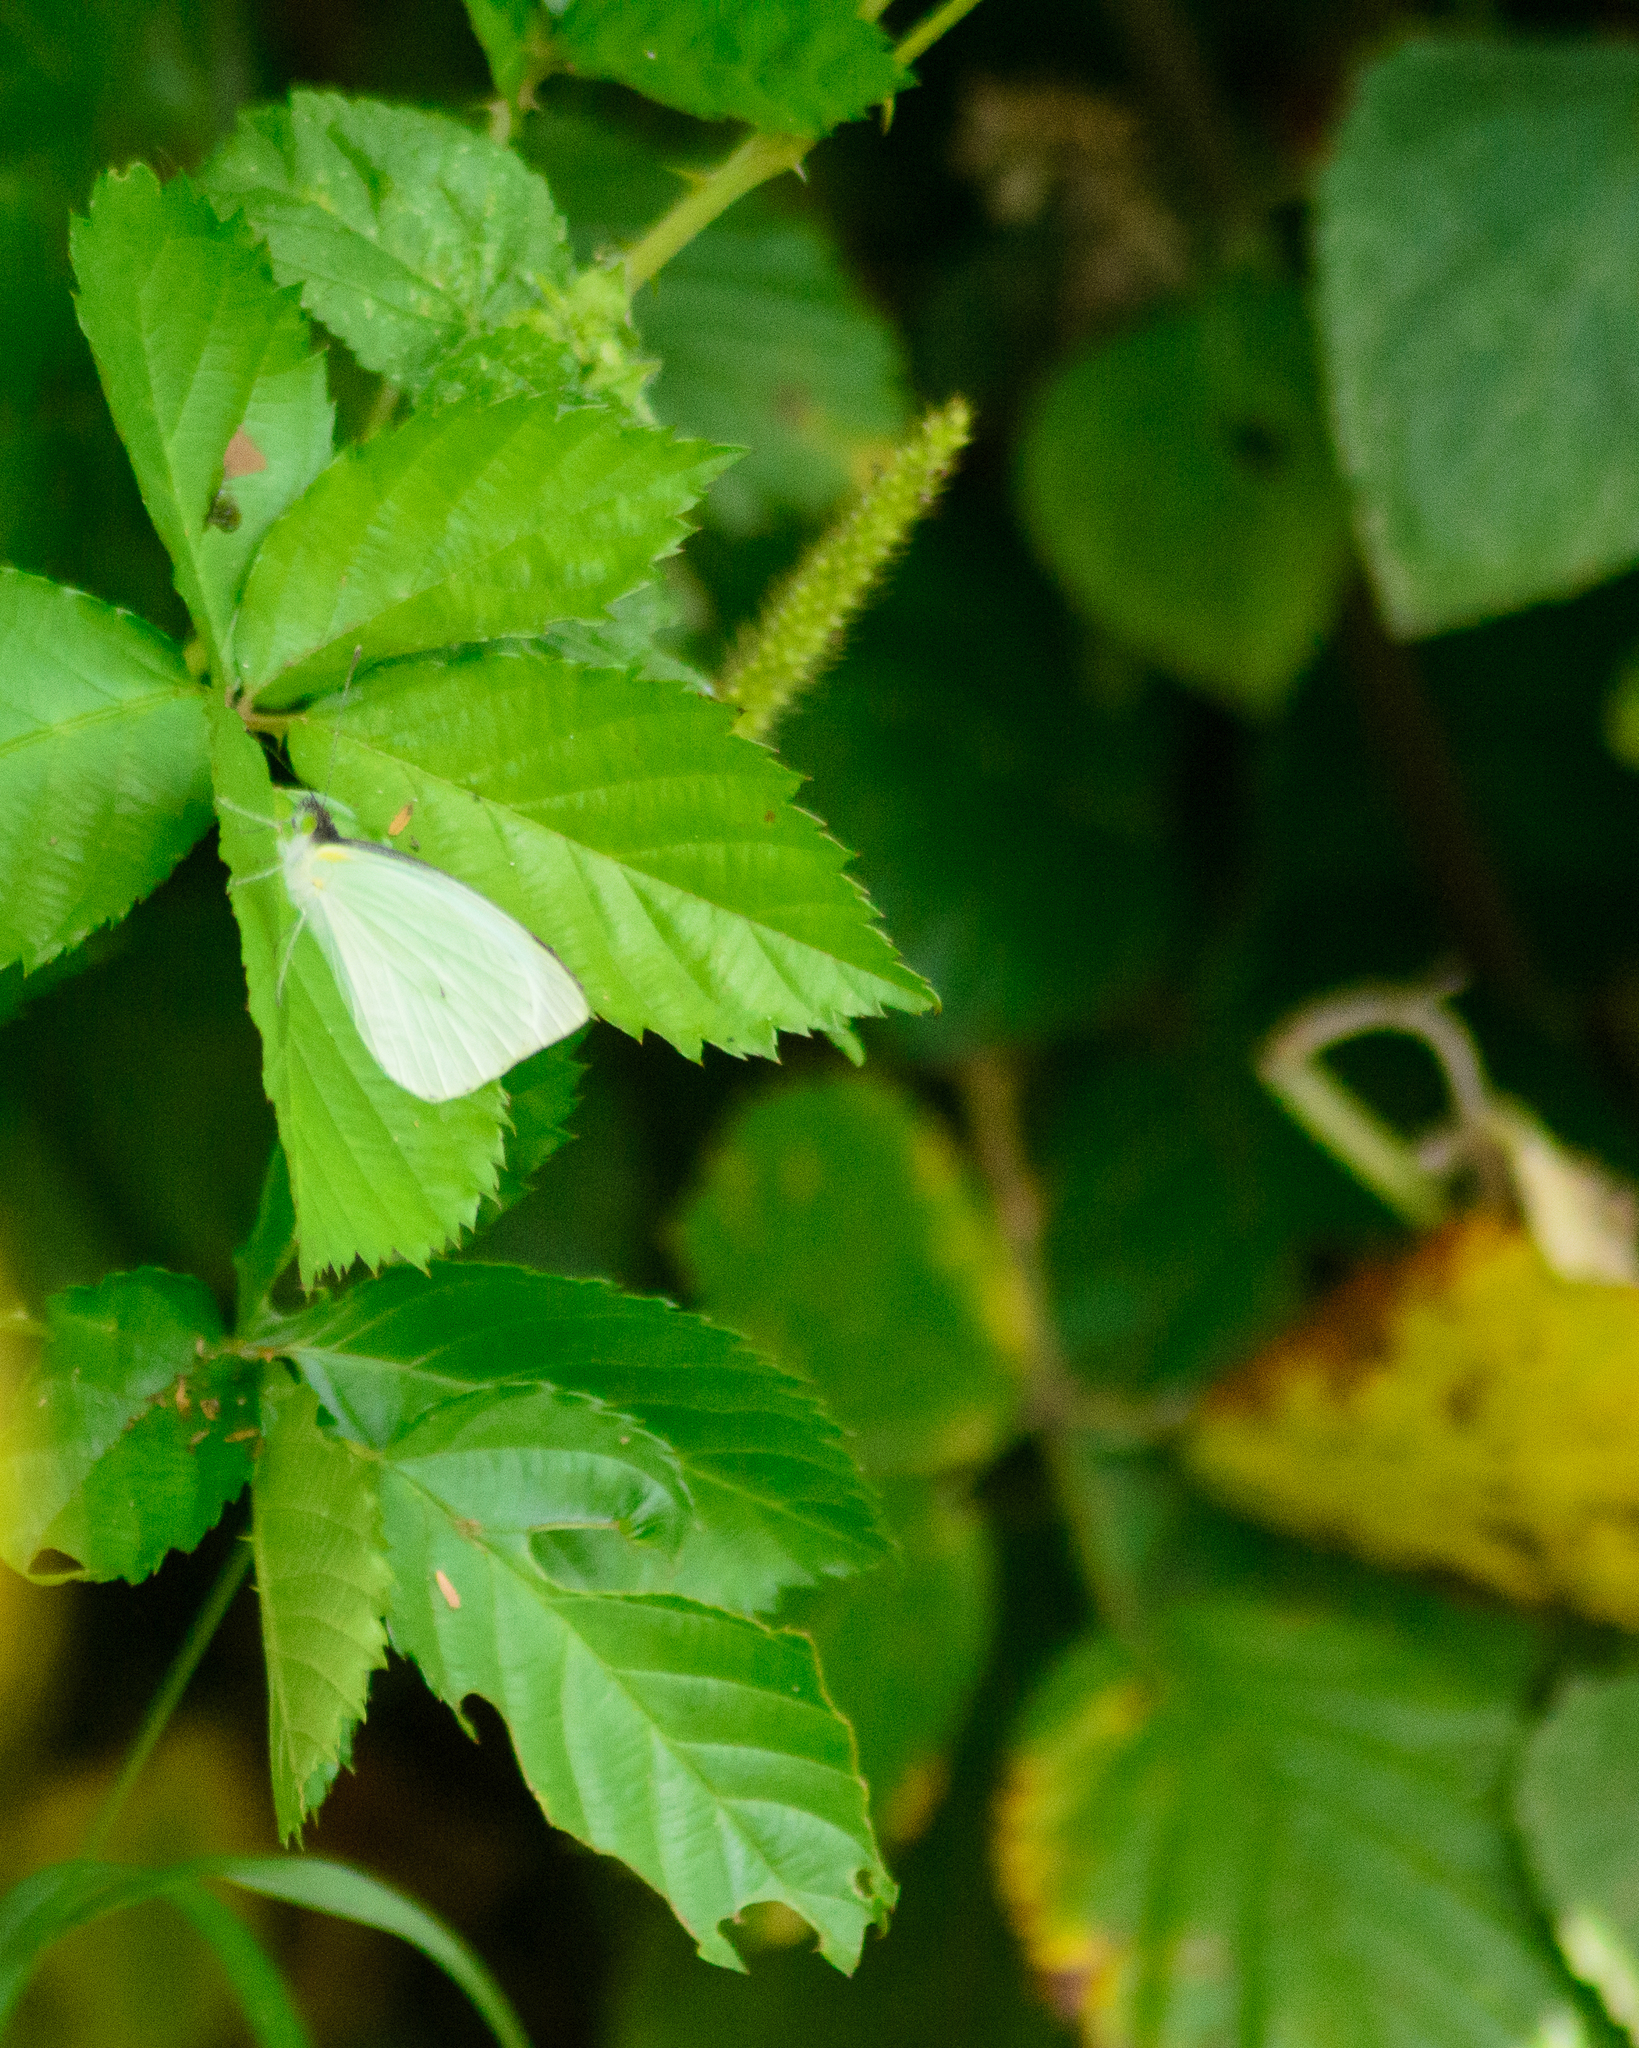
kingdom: Animalia
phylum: Arthropoda
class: Insecta
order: Lepidoptera
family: Pieridae
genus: Leptophobia
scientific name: Leptophobia aripa
